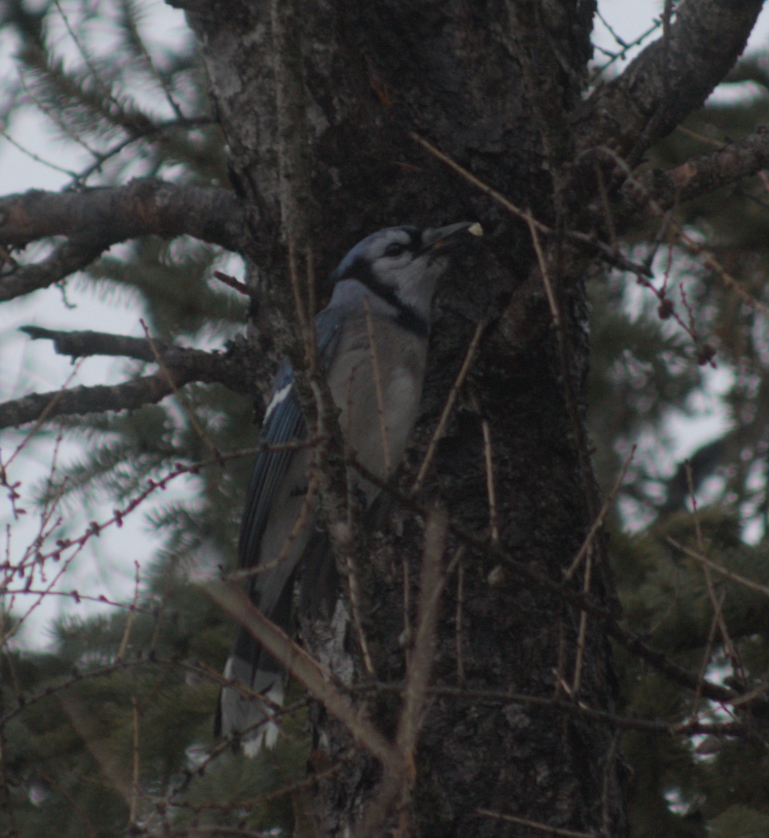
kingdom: Animalia
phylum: Chordata
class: Aves
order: Passeriformes
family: Corvidae
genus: Cyanocitta
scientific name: Cyanocitta cristata
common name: Blue jay
